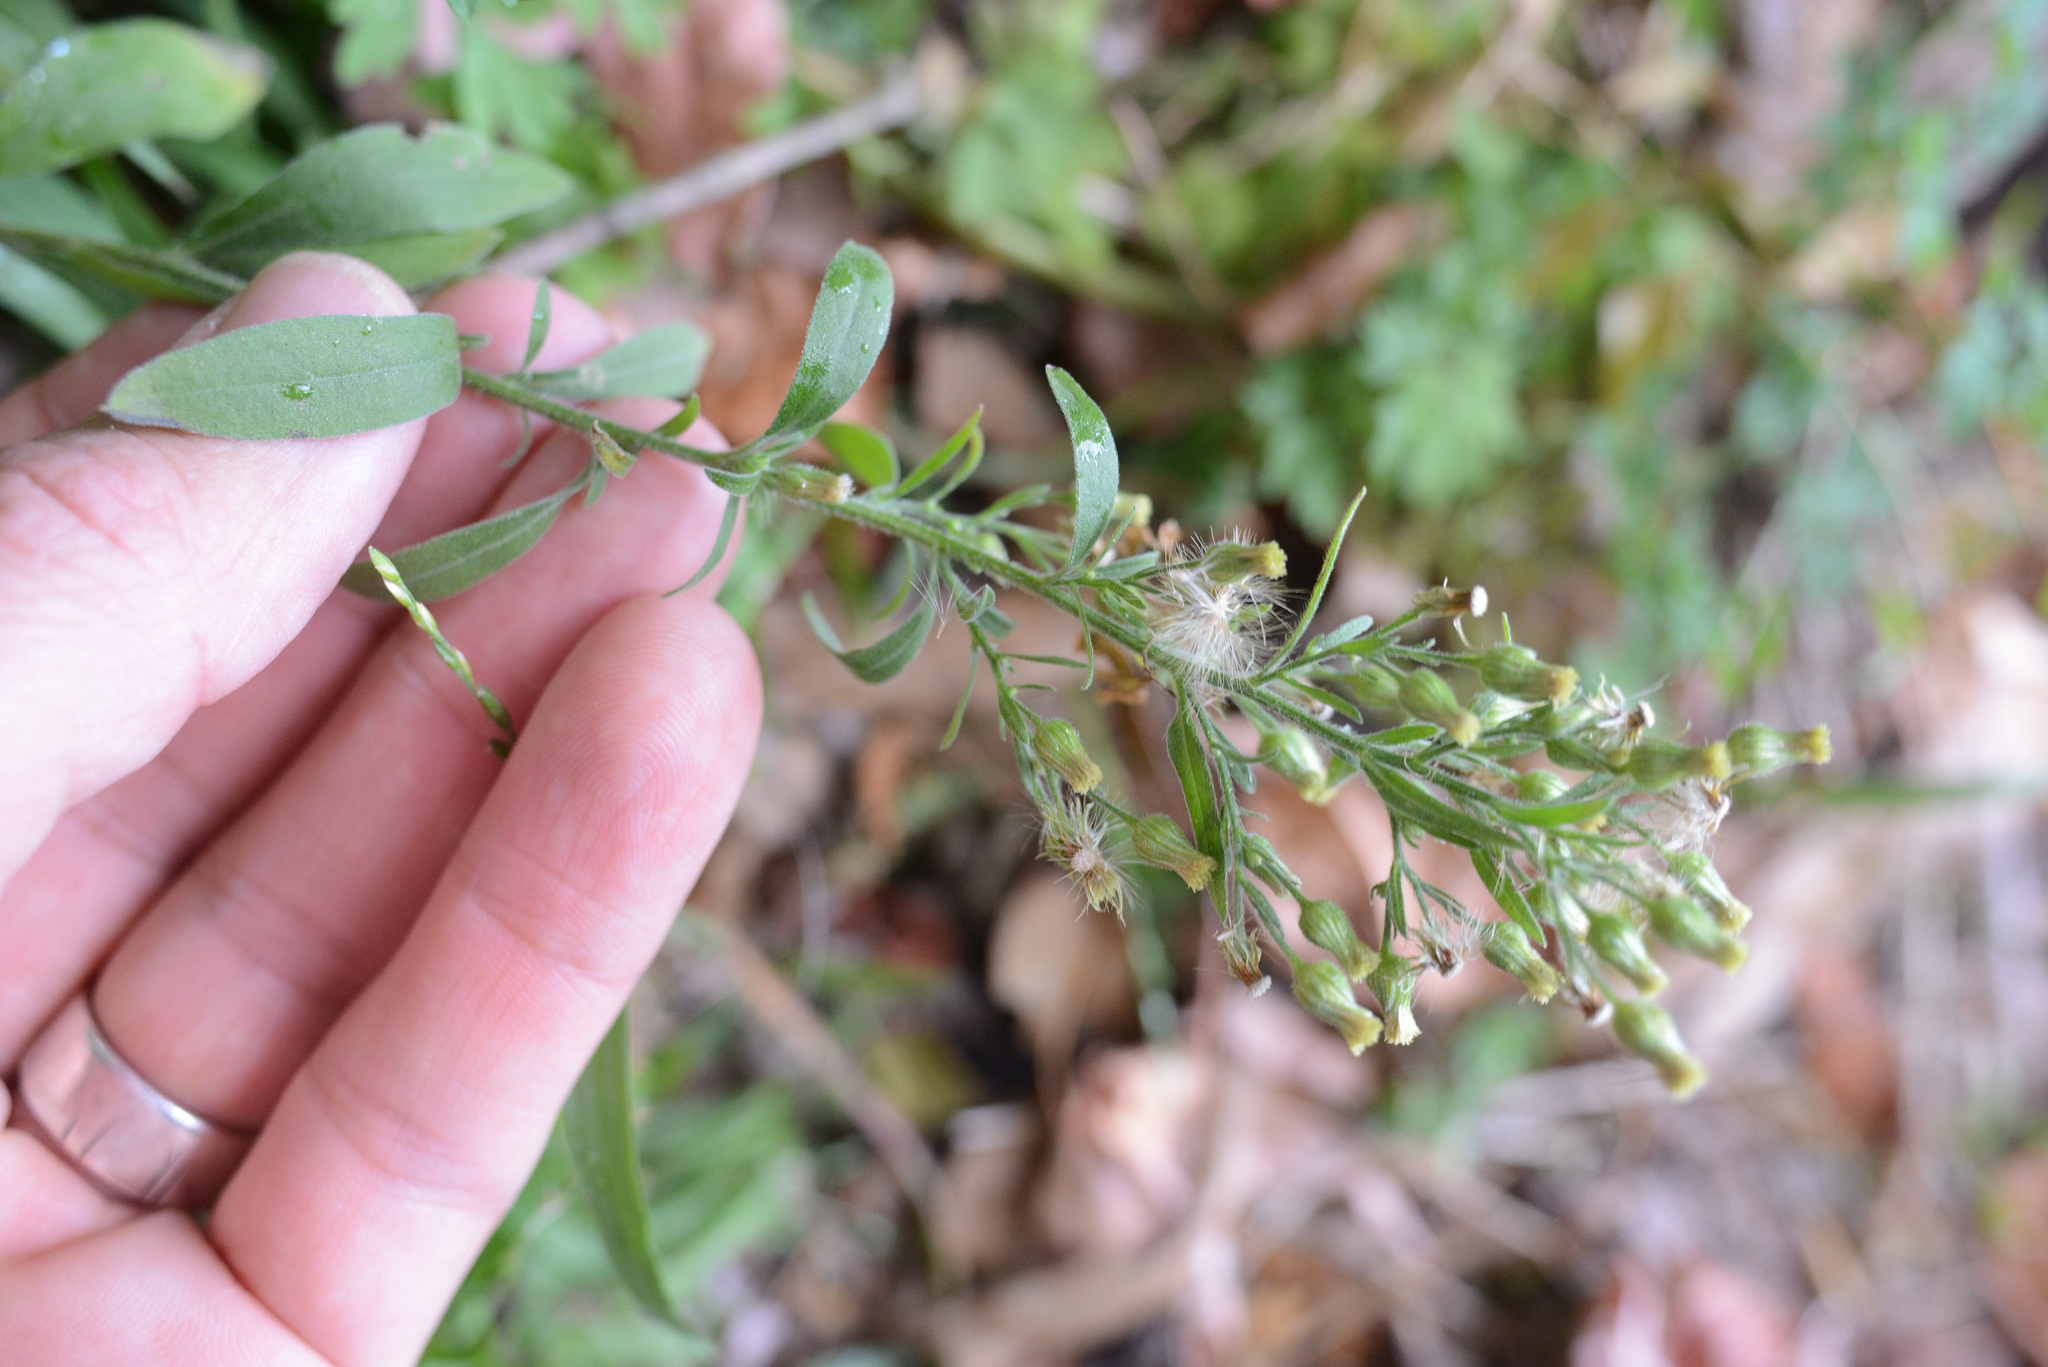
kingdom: Plantae
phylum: Tracheophyta
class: Magnoliopsida
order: Asterales
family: Asteraceae
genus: Erigeron
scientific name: Erigeron sumatrensis
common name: Daisy
